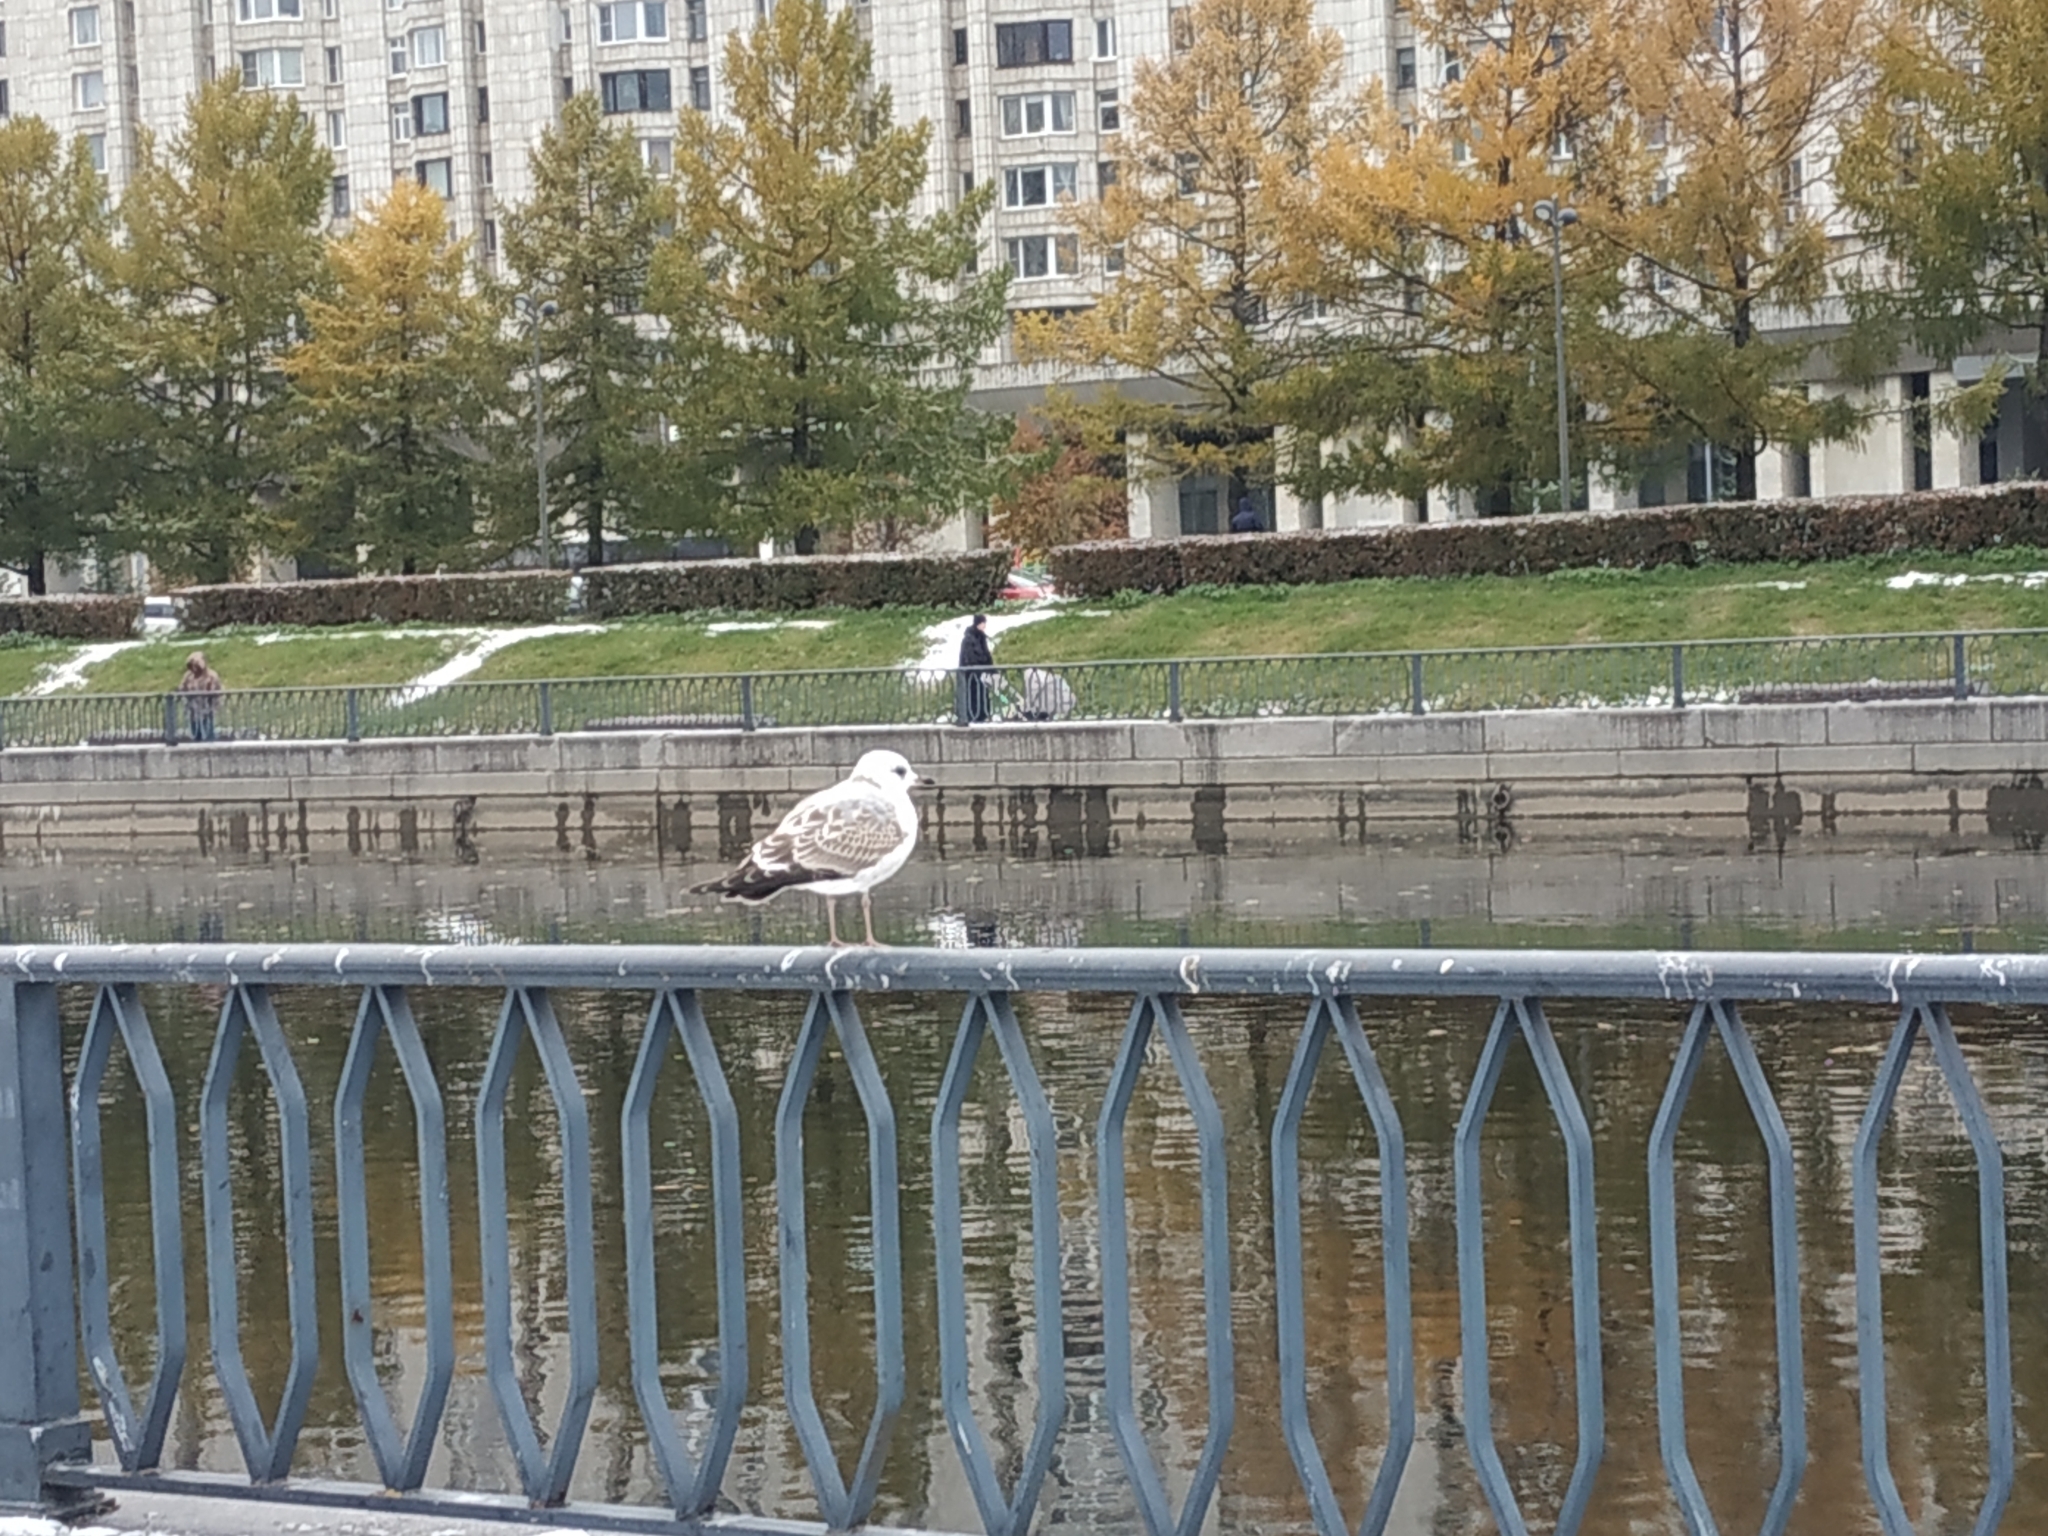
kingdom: Animalia
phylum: Chordata
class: Aves
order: Charadriiformes
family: Laridae
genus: Larus
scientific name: Larus canus
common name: Mew gull
